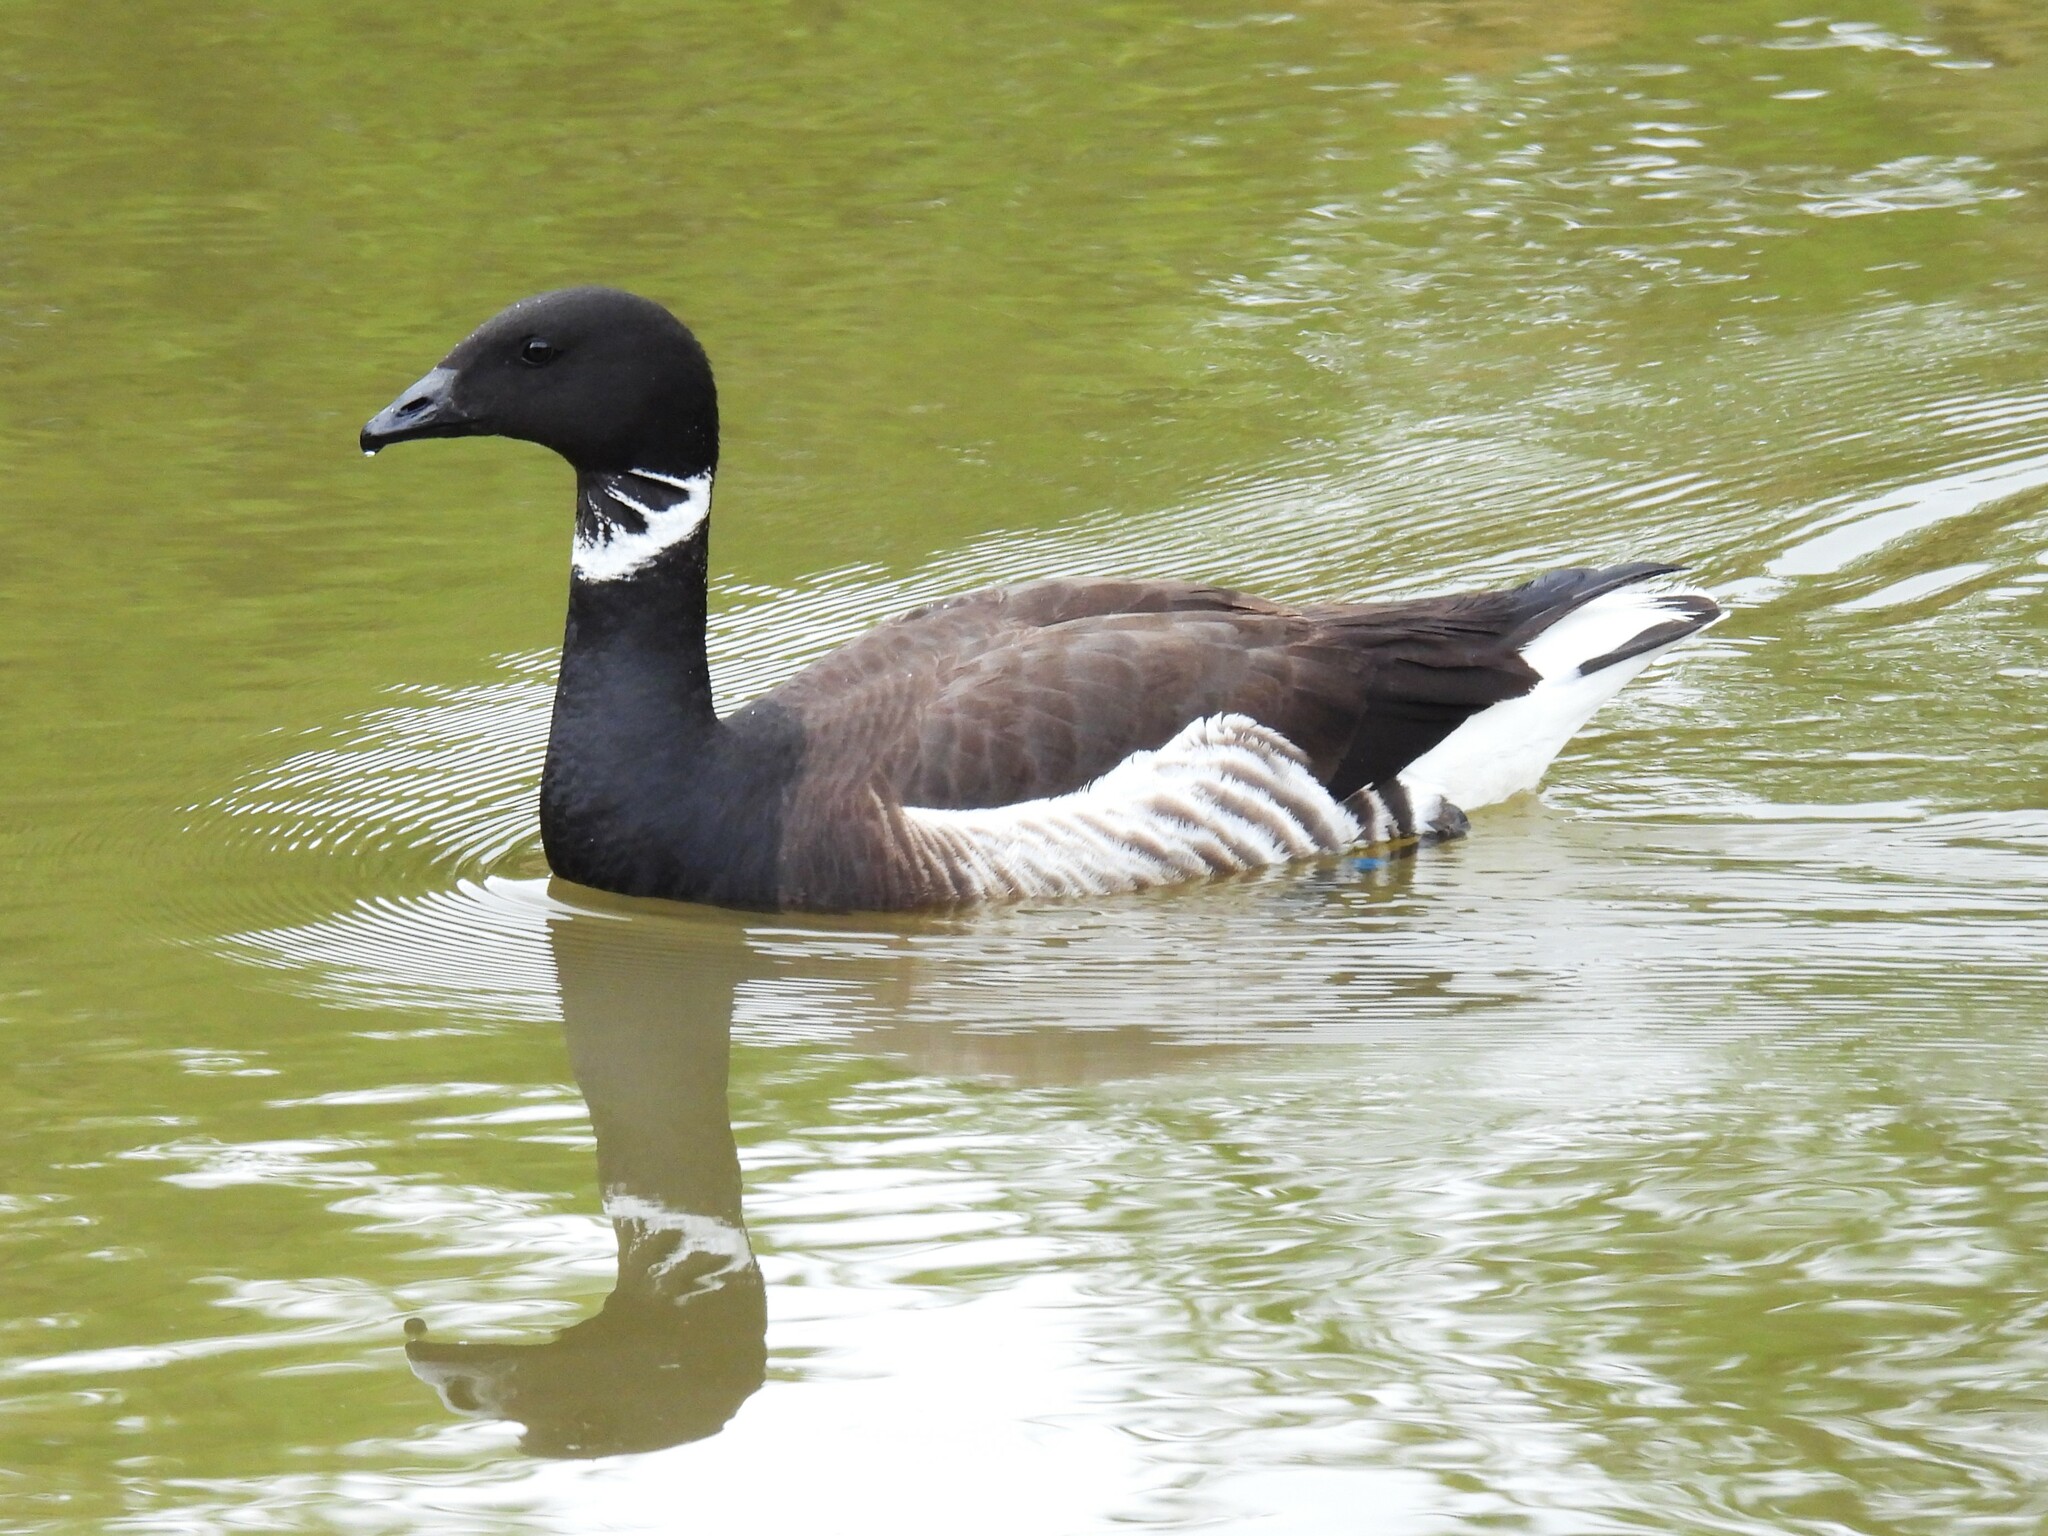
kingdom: Animalia
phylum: Chordata
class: Aves
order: Anseriformes
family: Anatidae
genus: Branta
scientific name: Branta bernicla
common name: Brant goose
